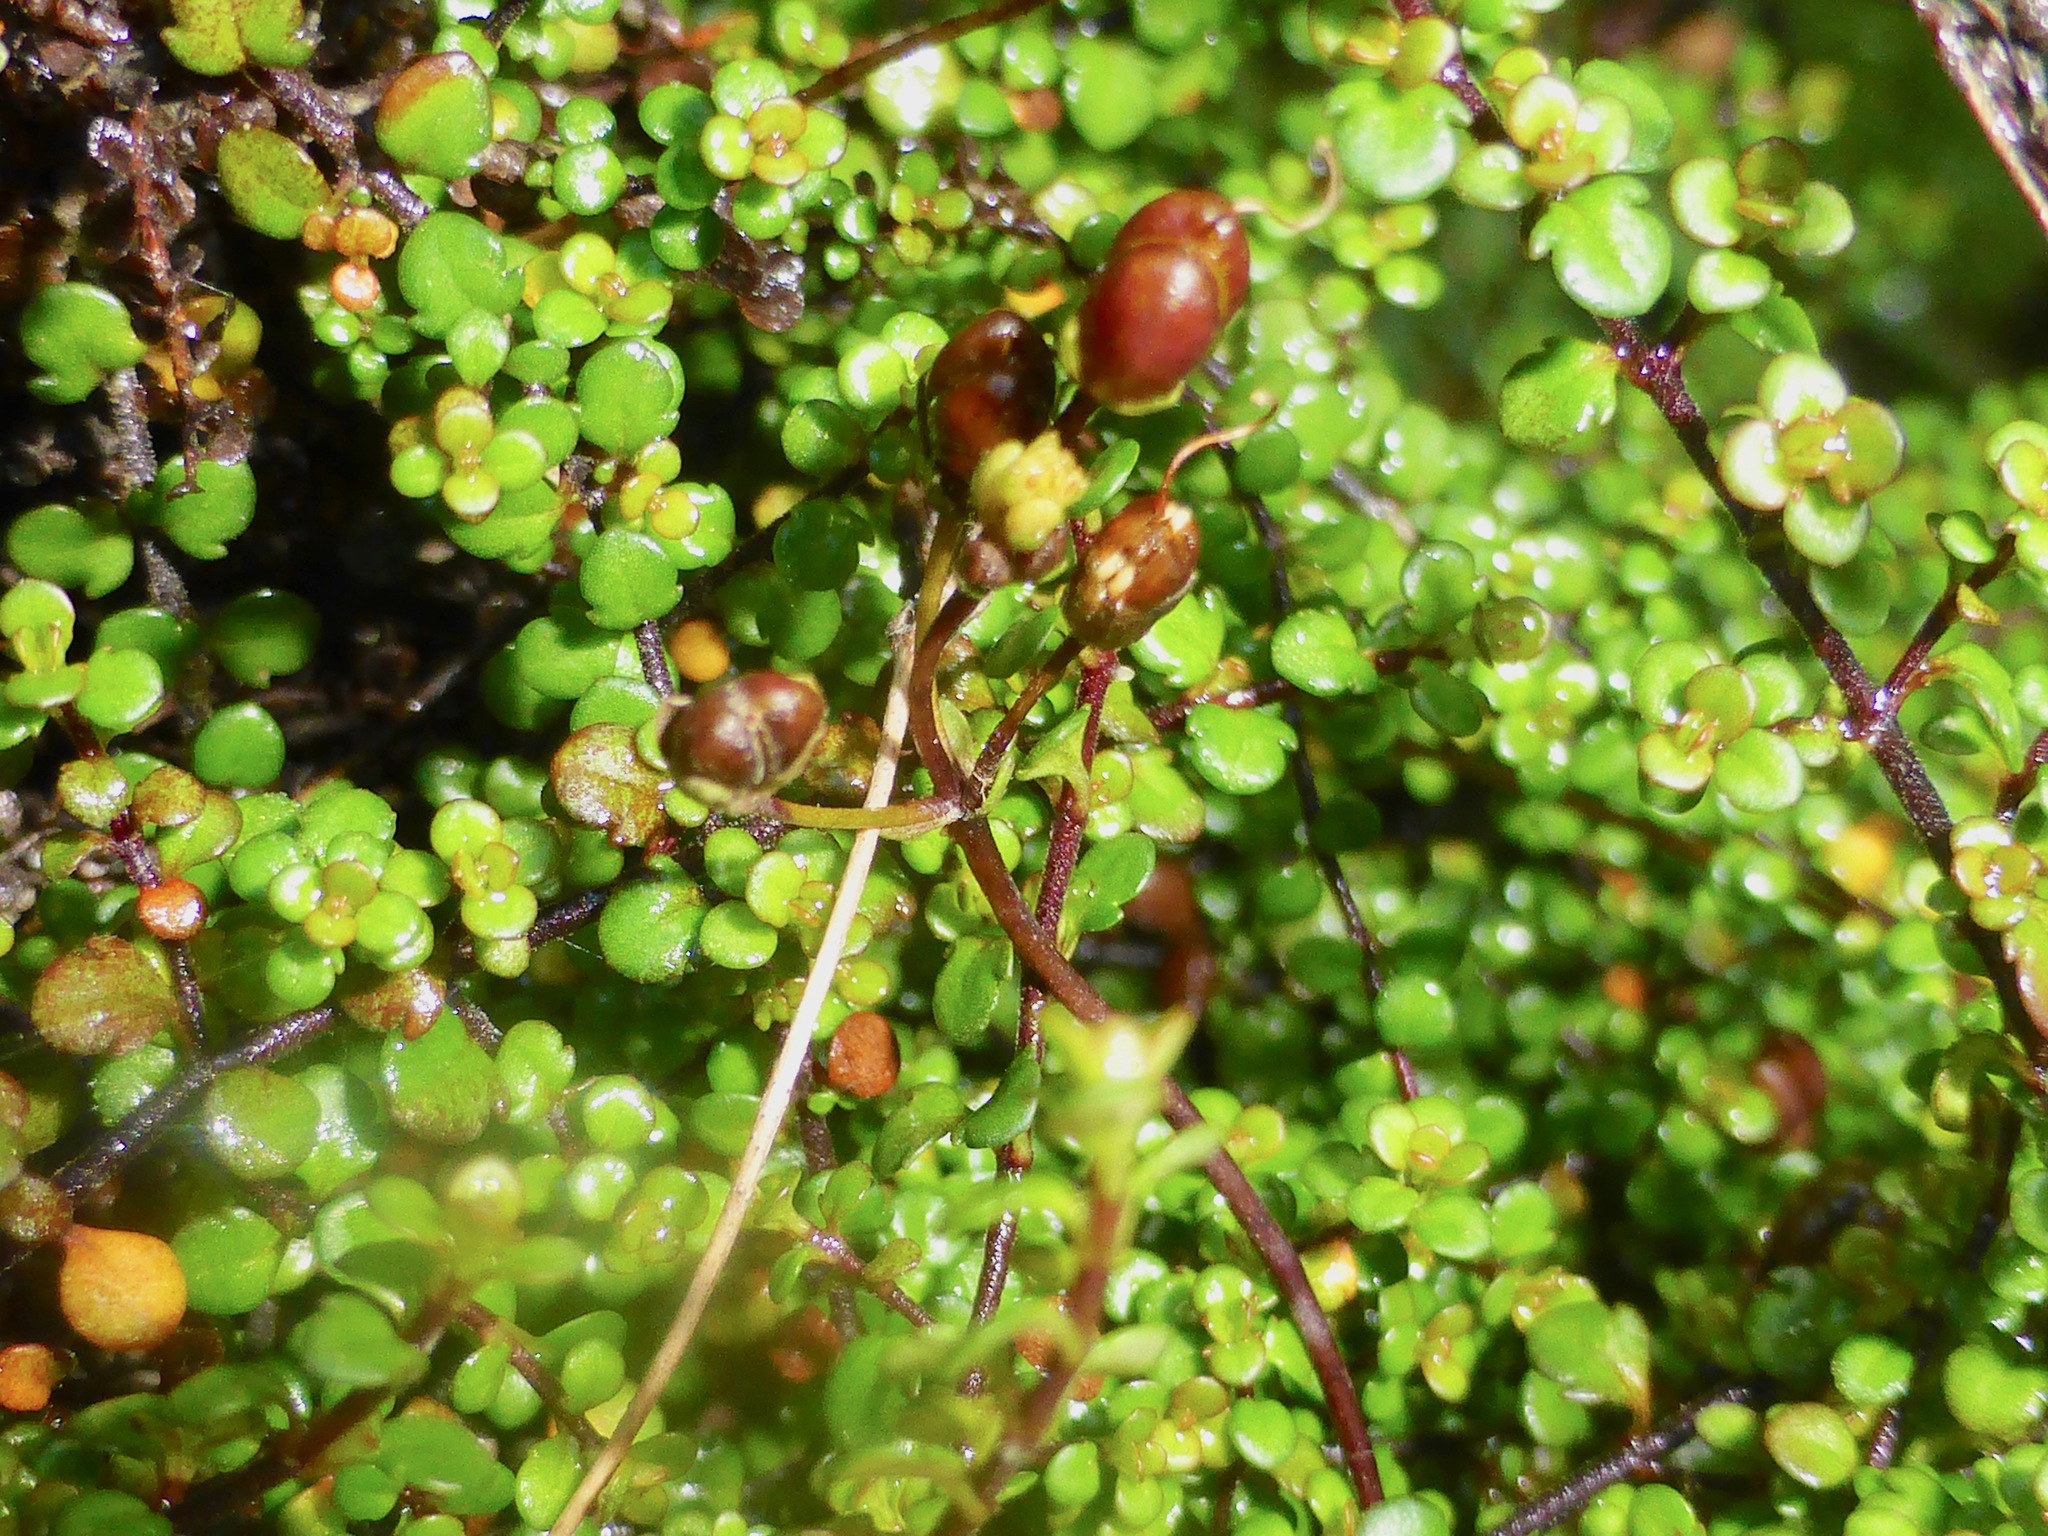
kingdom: Plantae
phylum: Tracheophyta
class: Magnoliopsida
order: Lamiales
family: Plantaginaceae
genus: Veronica
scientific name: Veronica decora
